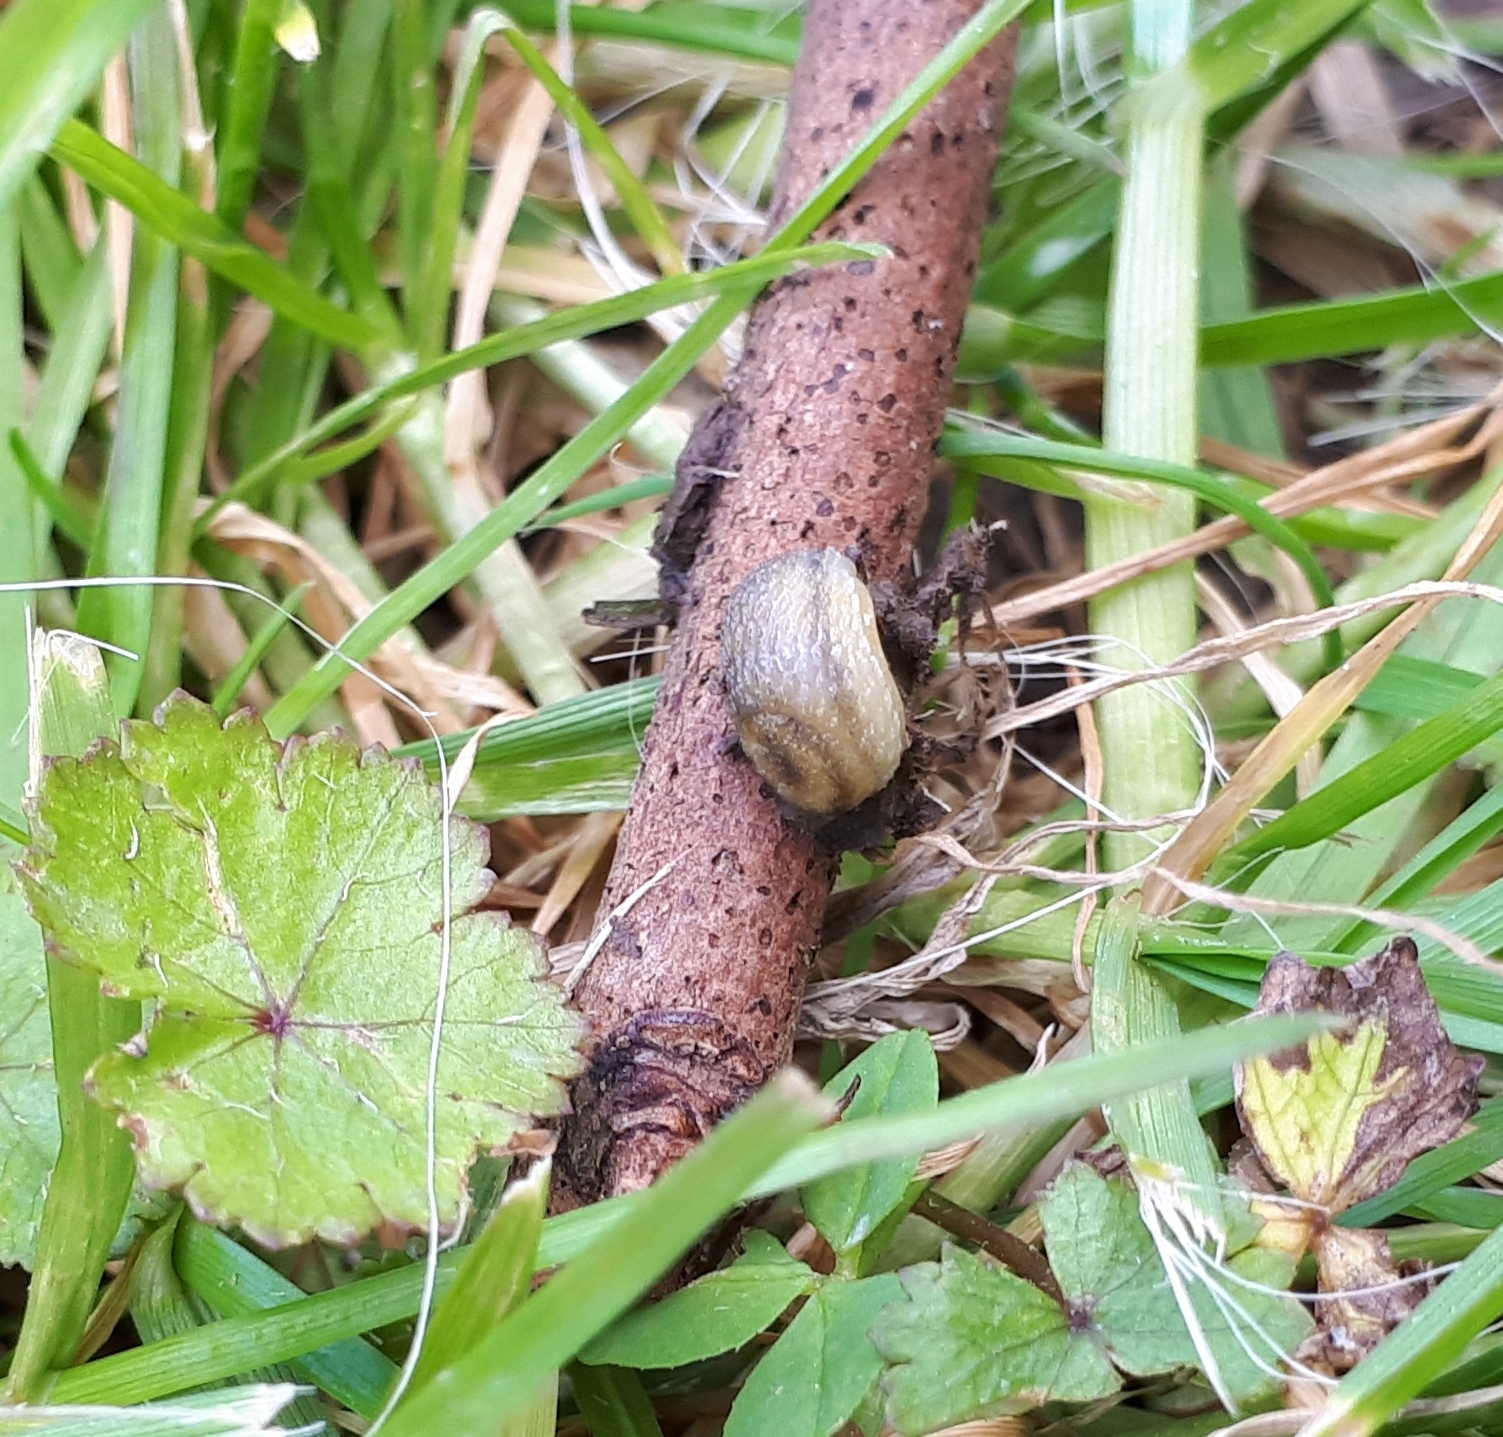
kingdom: Animalia
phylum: Mollusca
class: Gastropoda
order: Stylommatophora
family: Arionidae
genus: Arion
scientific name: Arion intermedius
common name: Hedgehog slug
